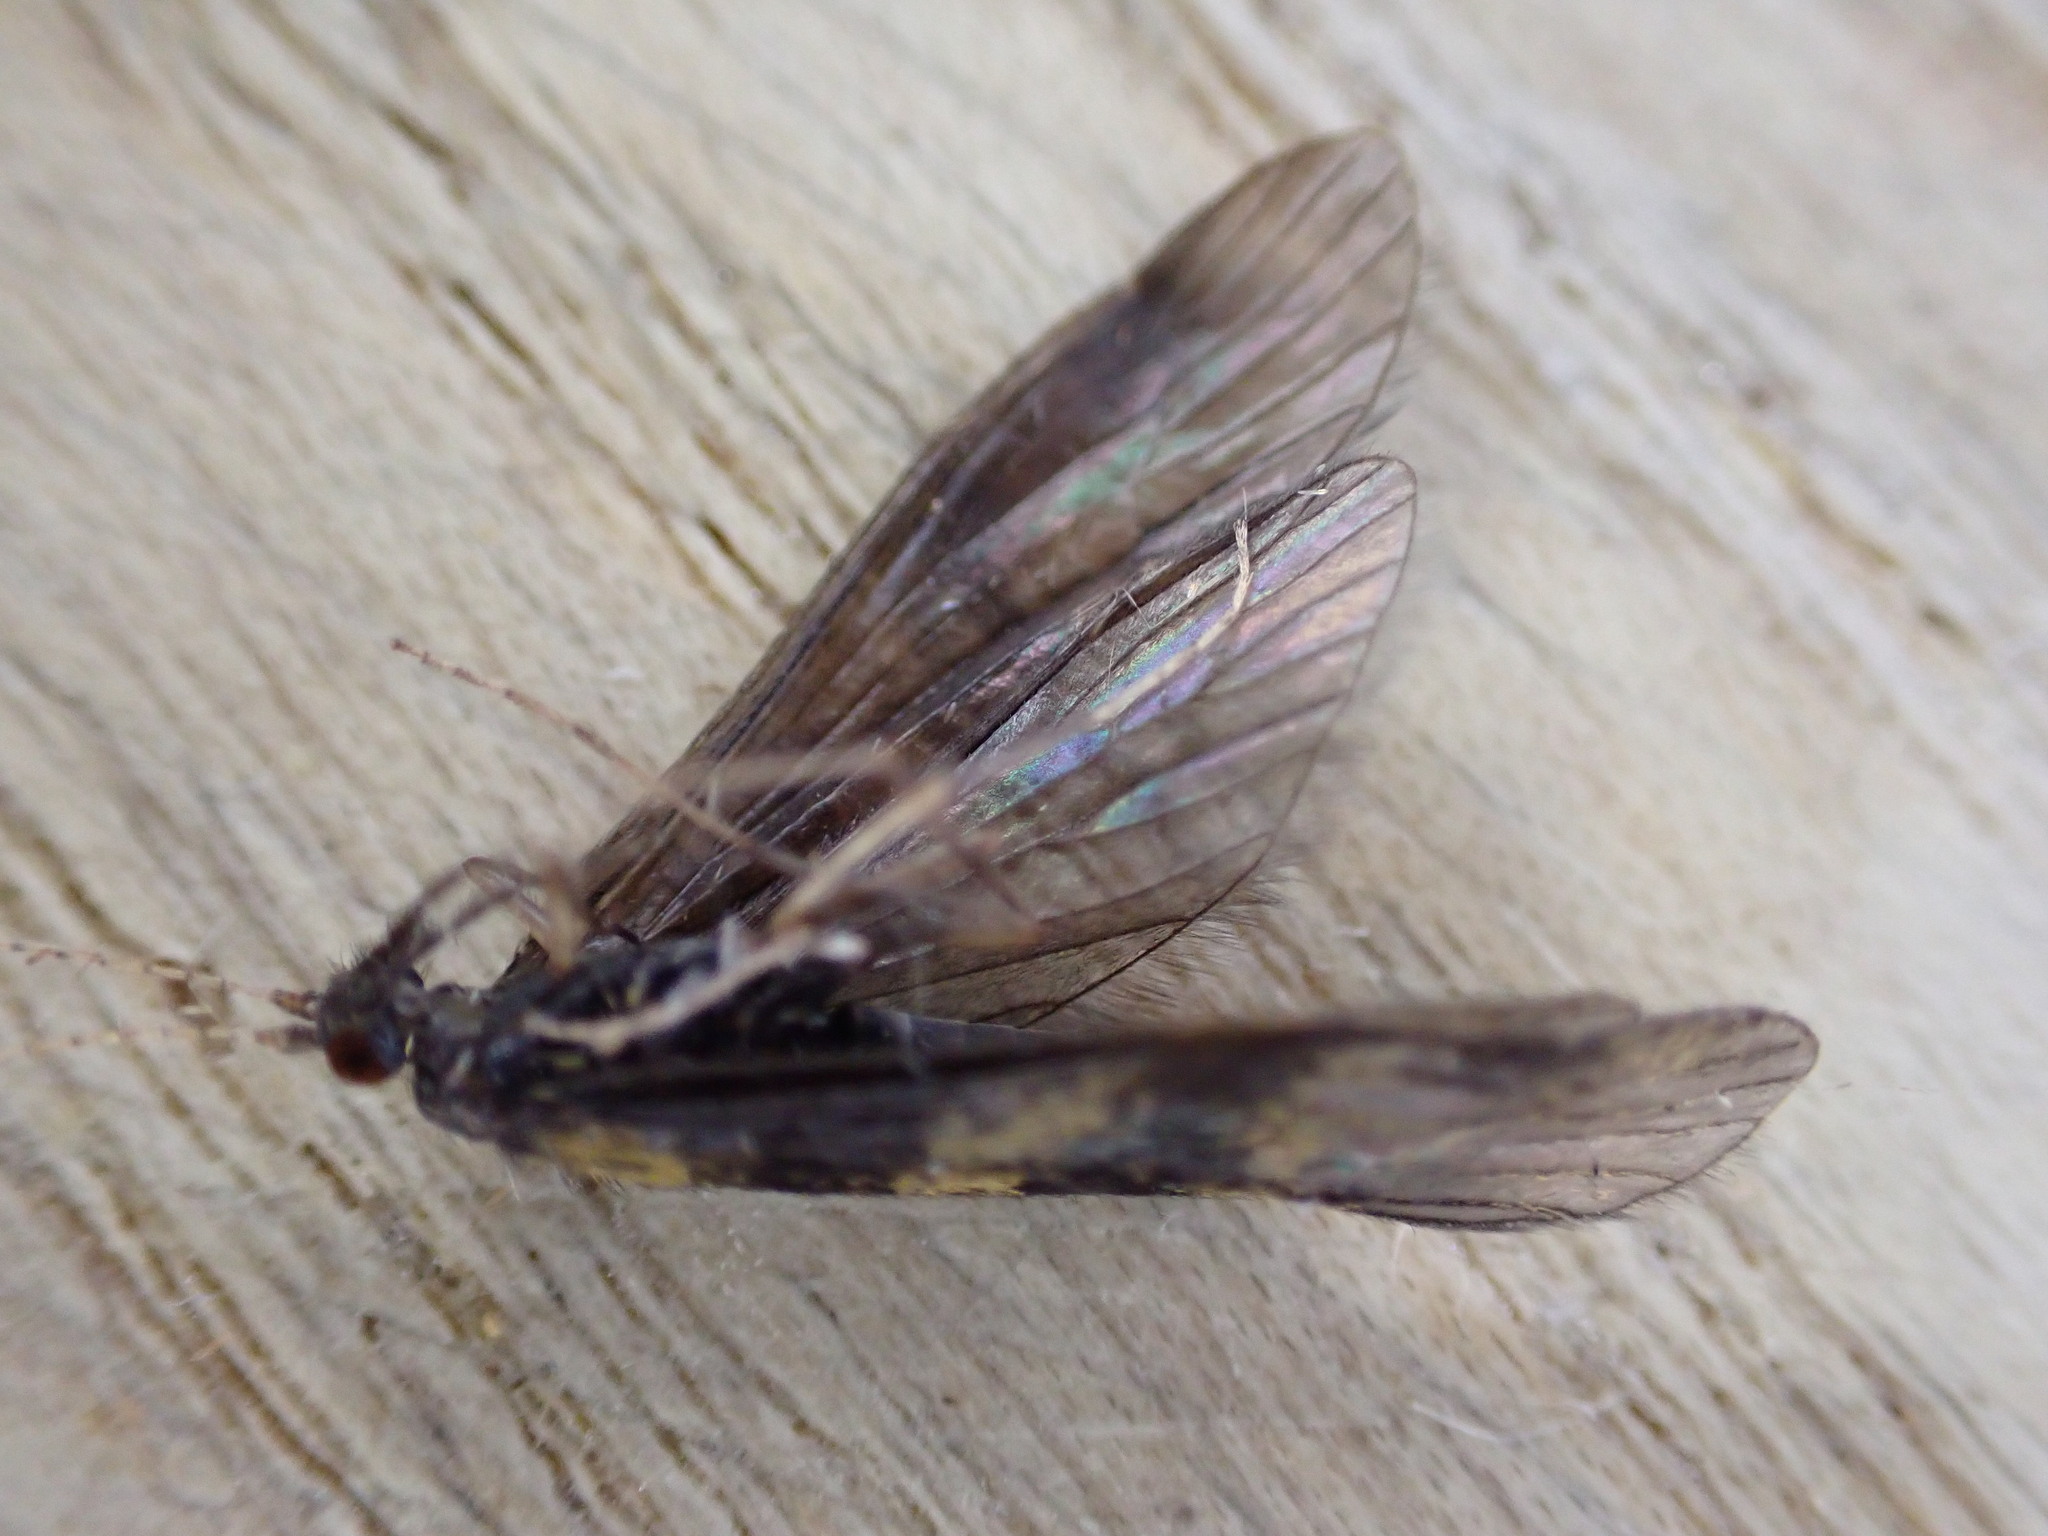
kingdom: Animalia
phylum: Arthropoda
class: Insecta
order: Trichoptera
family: Leptoceridae
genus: Mystacides
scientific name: Mystacides longicornis
